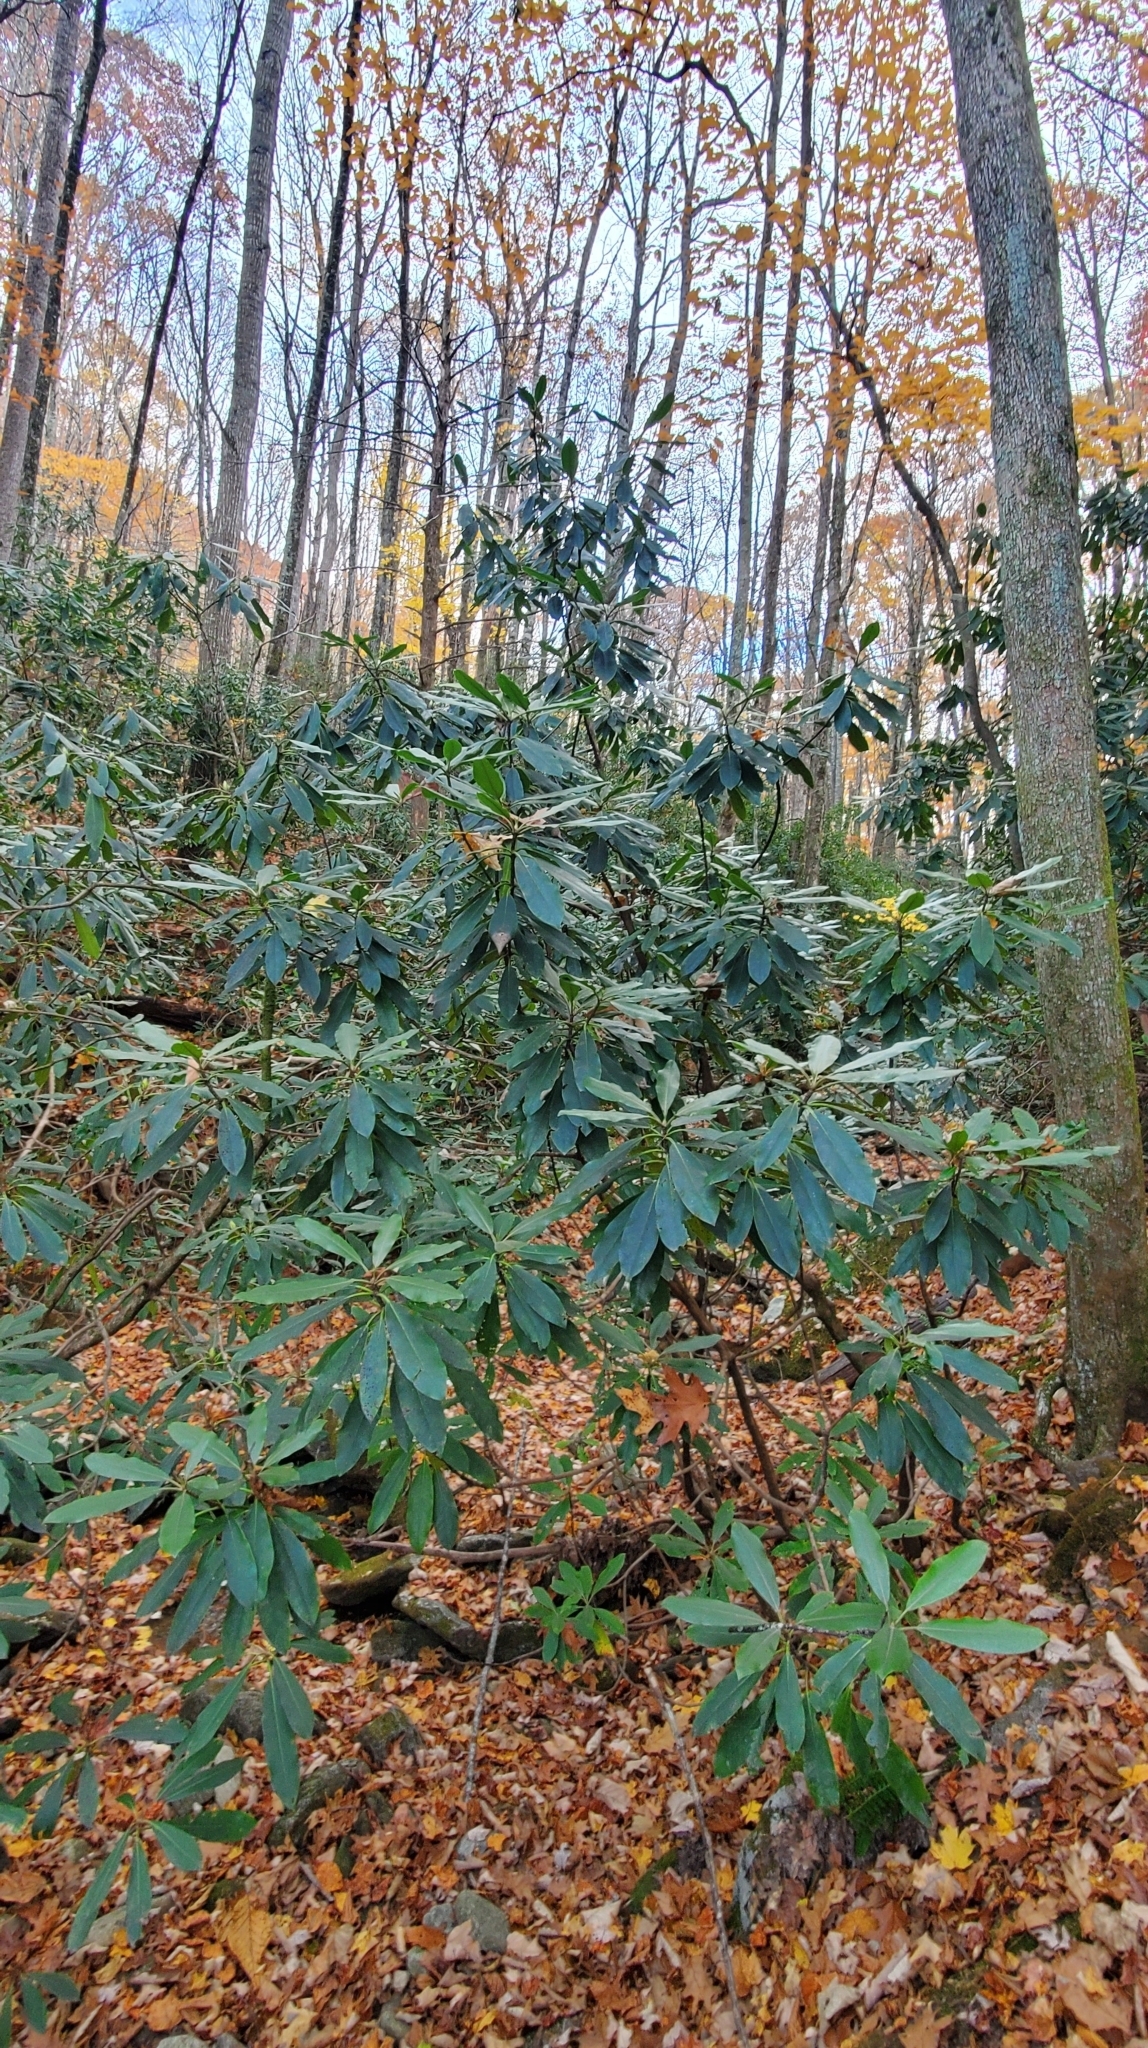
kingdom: Plantae
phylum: Tracheophyta
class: Magnoliopsida
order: Ericales
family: Ericaceae
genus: Rhododendron
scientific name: Rhododendron maximum
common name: Great rhododendron
